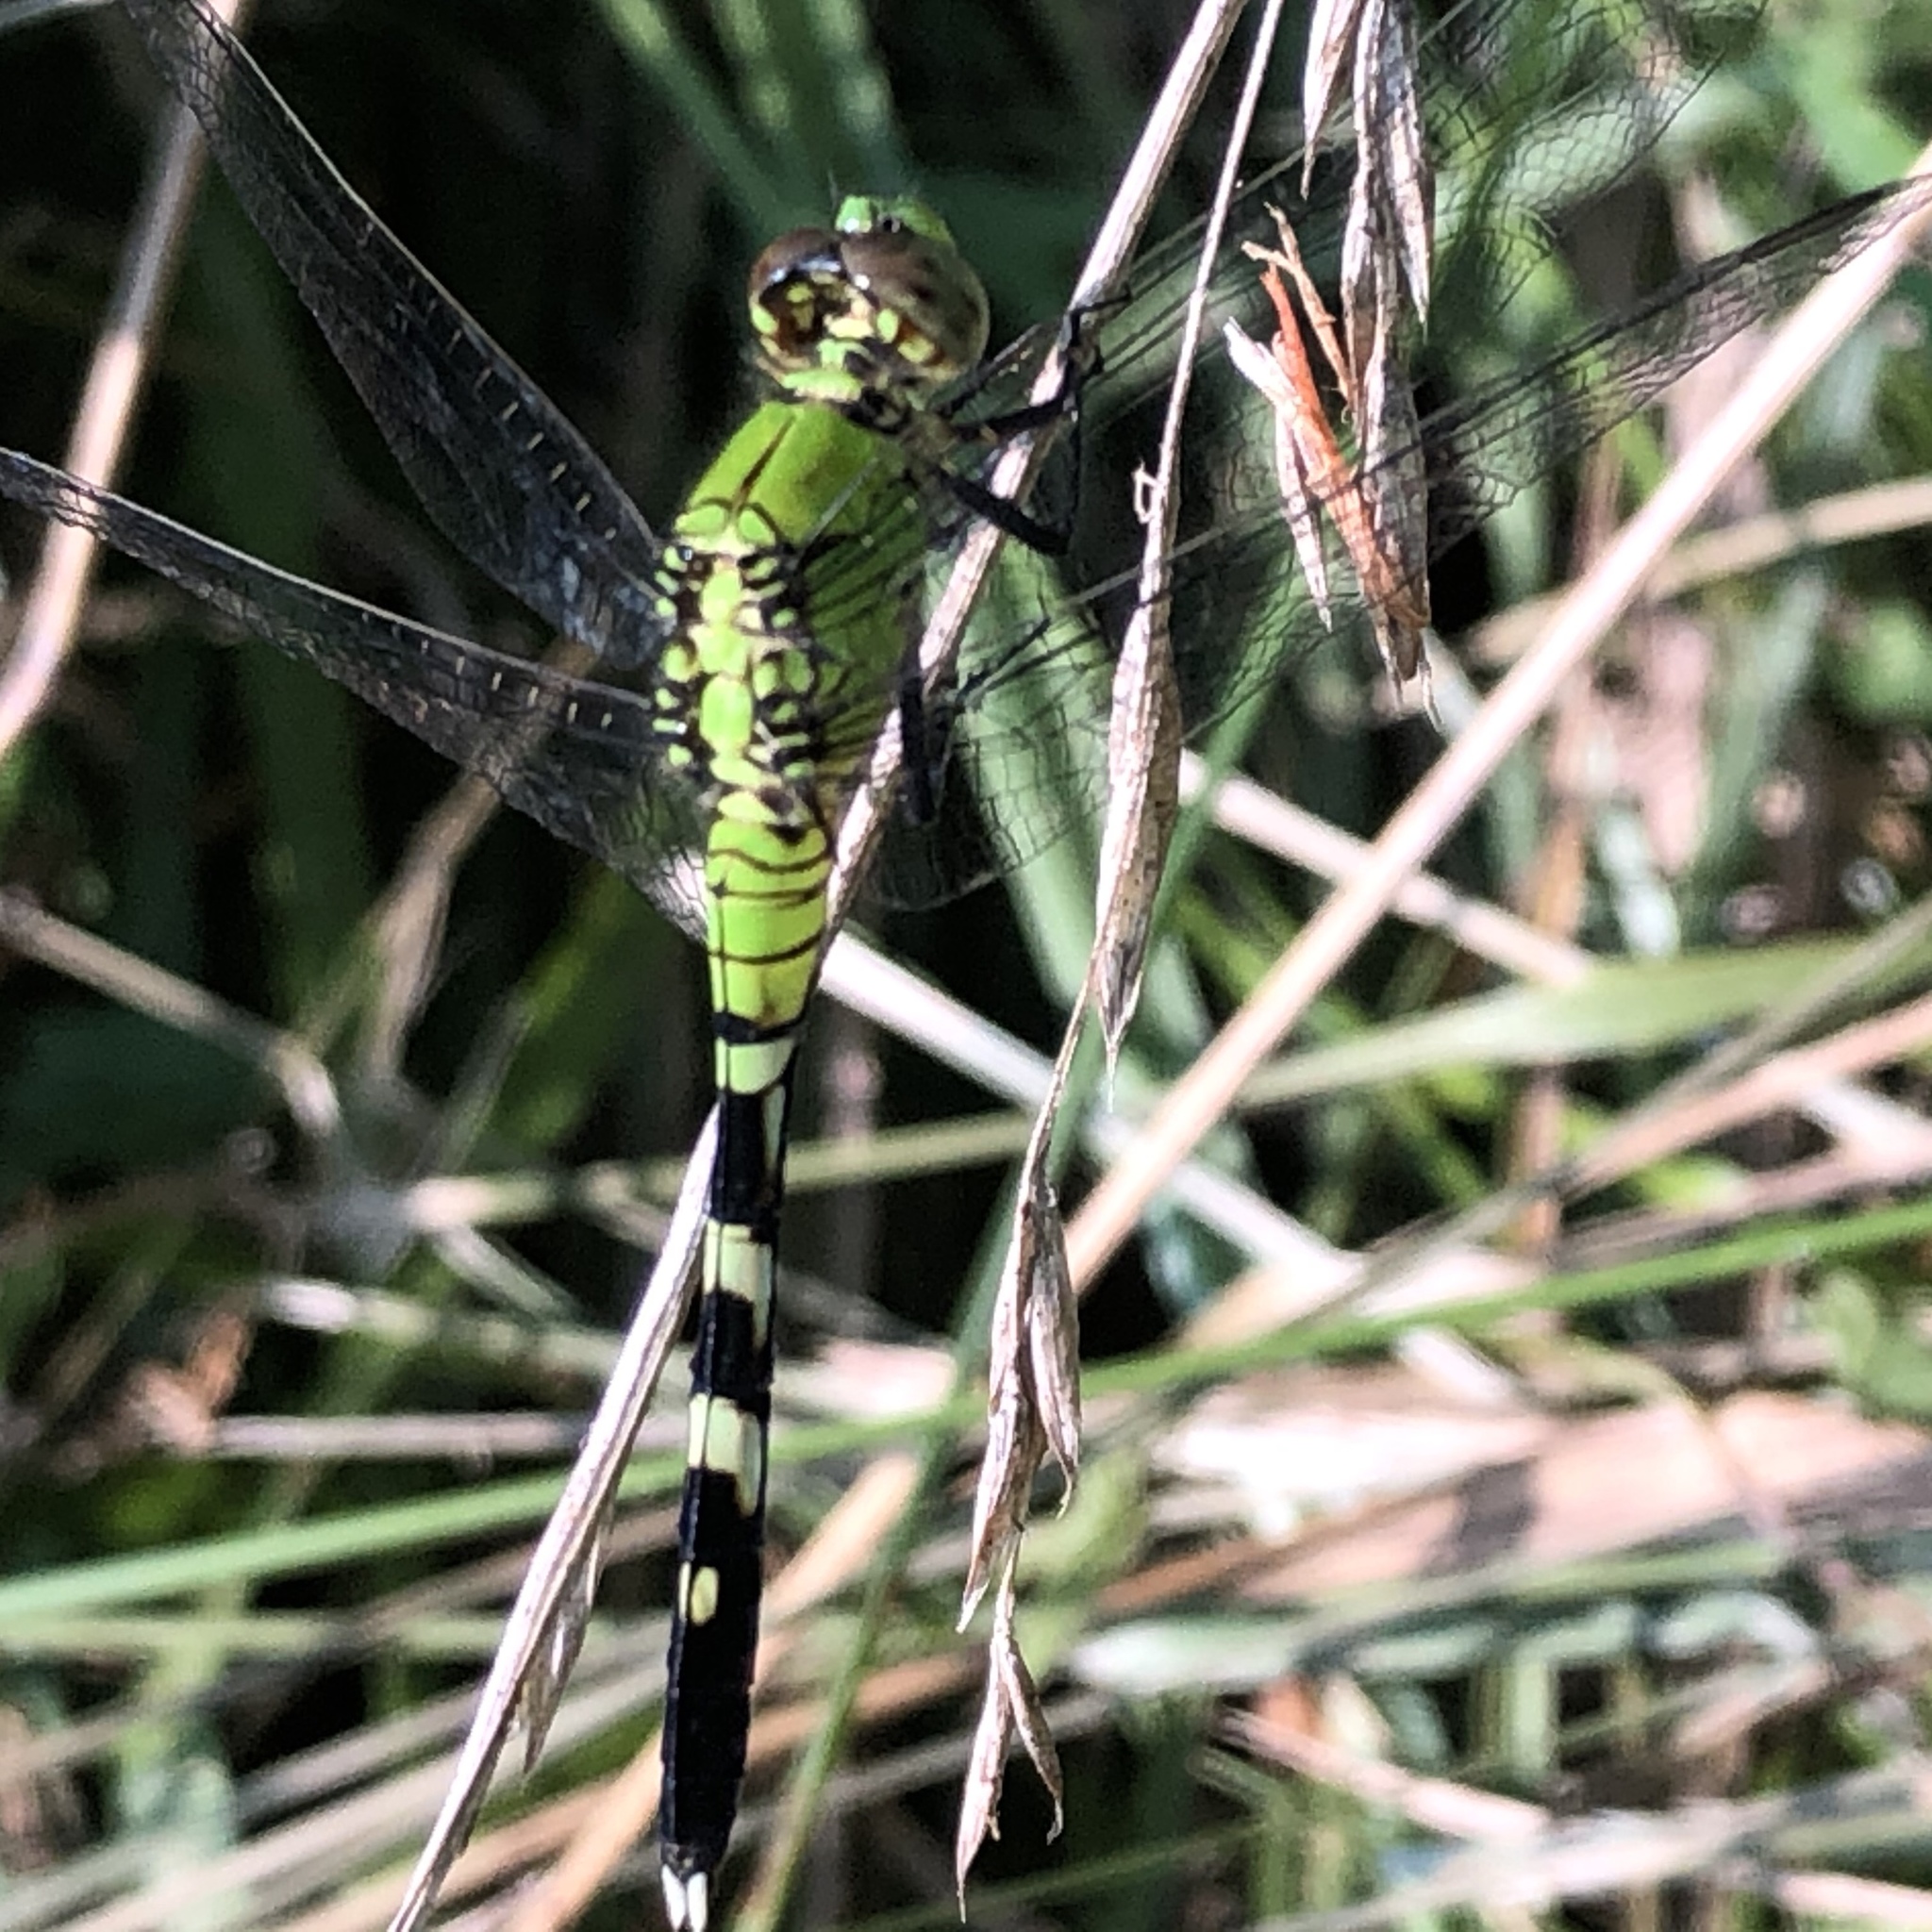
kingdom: Animalia
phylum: Arthropoda
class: Insecta
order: Odonata
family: Libellulidae
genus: Erythemis
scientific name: Erythemis simplicicollis
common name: Eastern pondhawk
